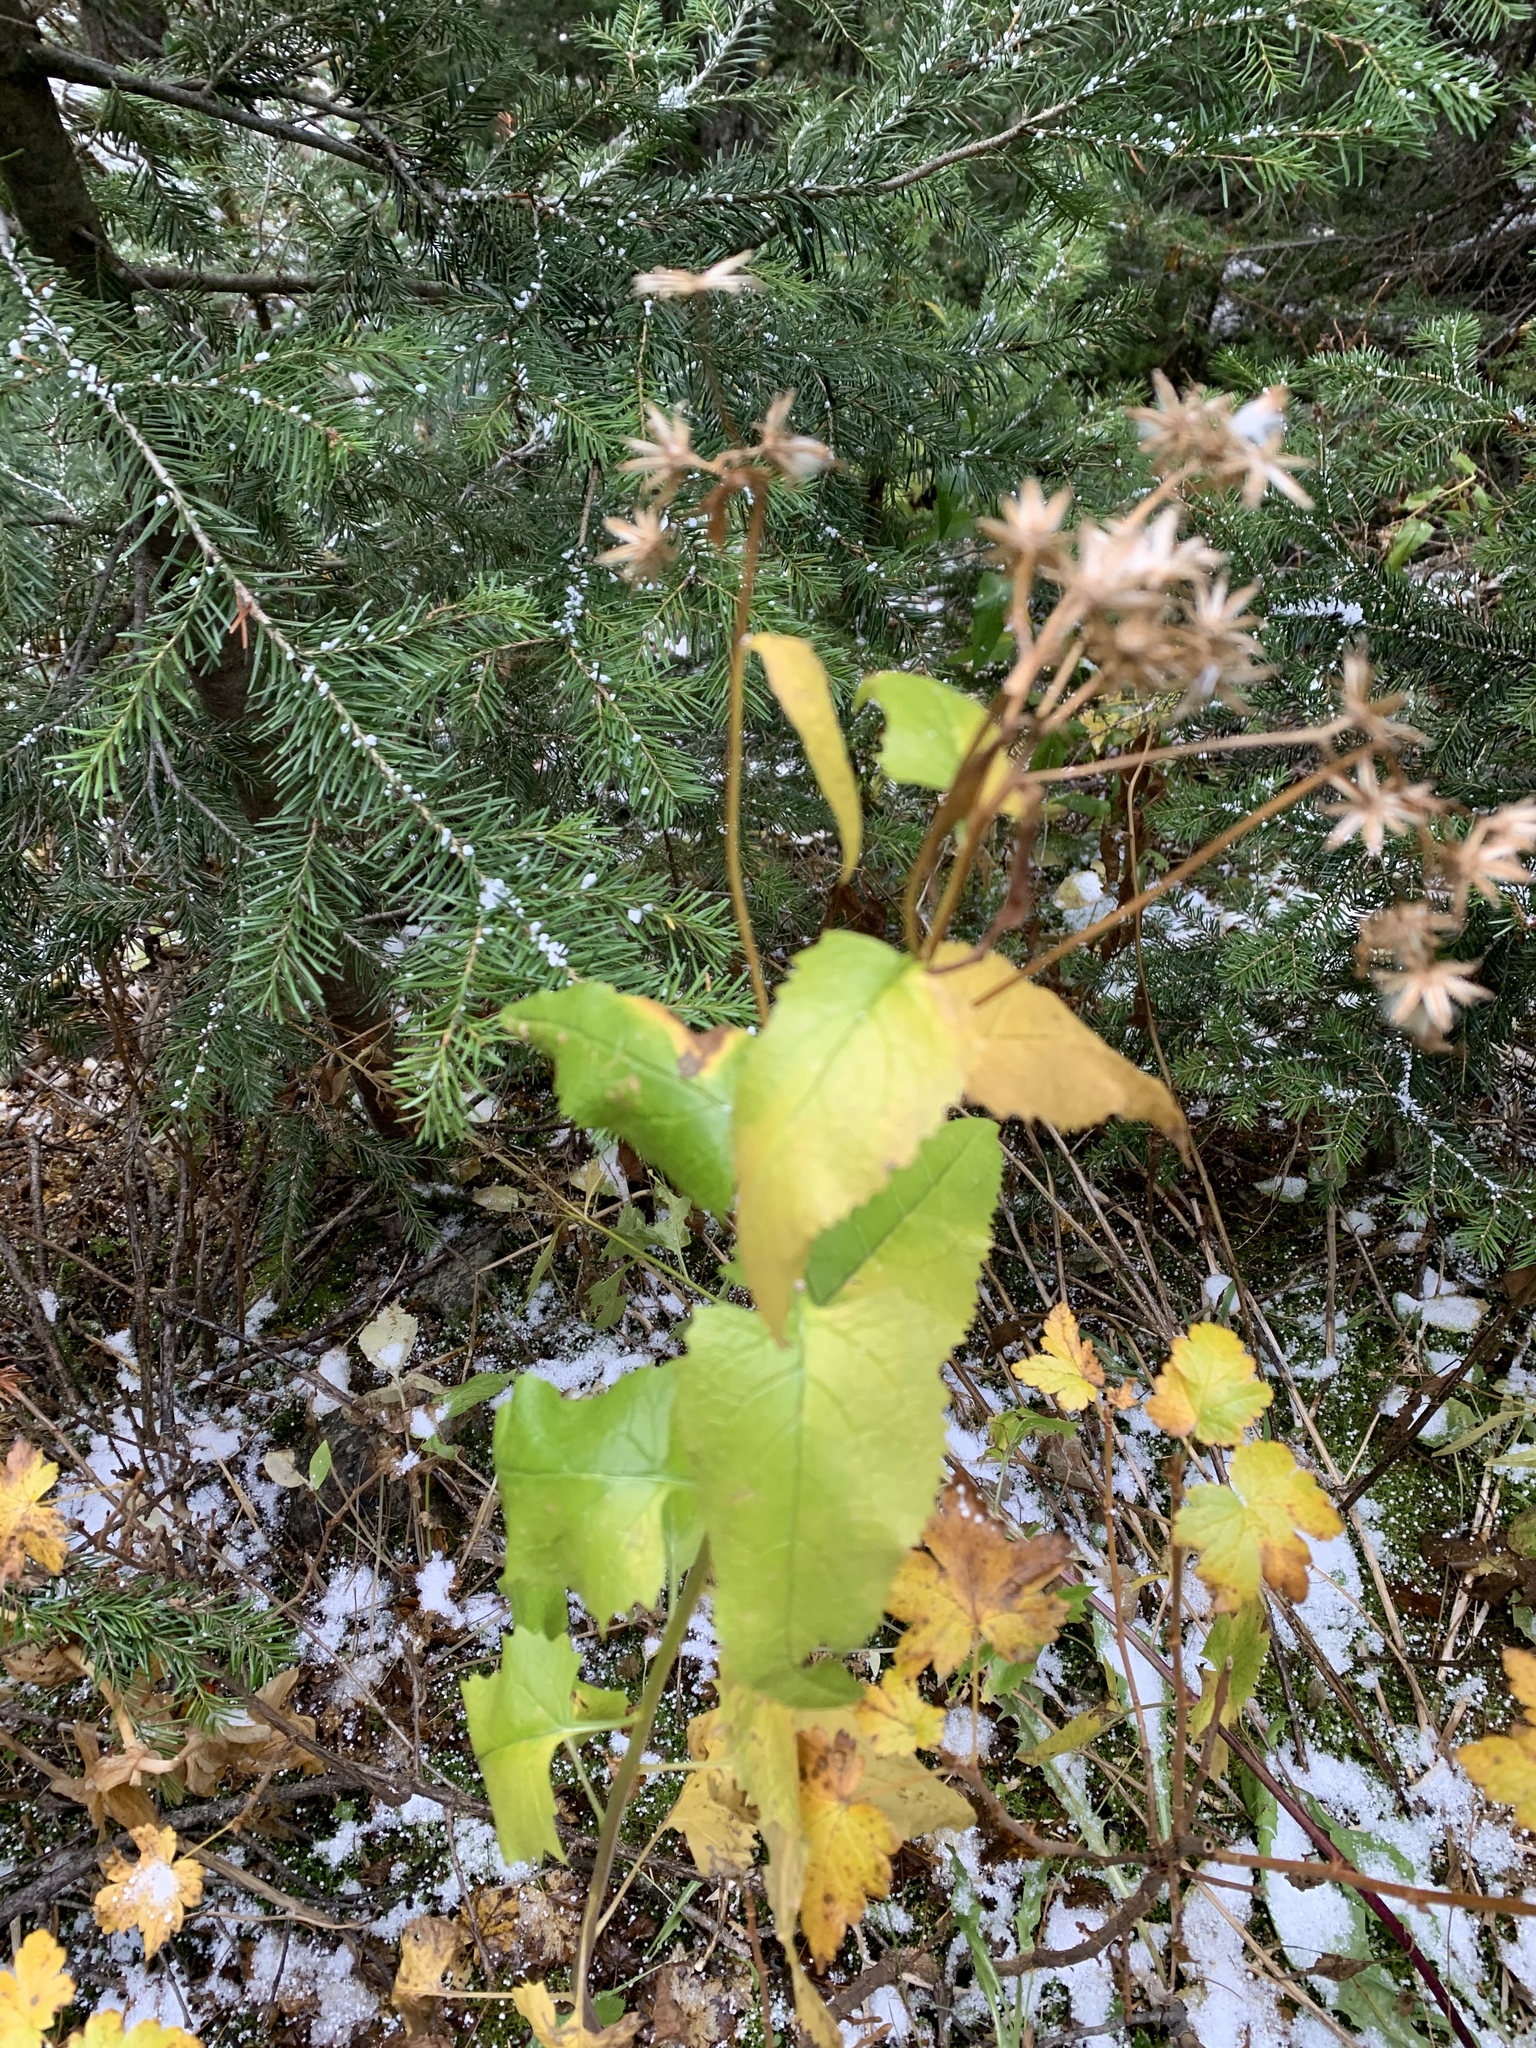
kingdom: Plantae
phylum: Tracheophyta
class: Magnoliopsida
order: Asterales
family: Asteraceae
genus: Senecio
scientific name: Senecio triangularis
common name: Arrowleaf butterweed
